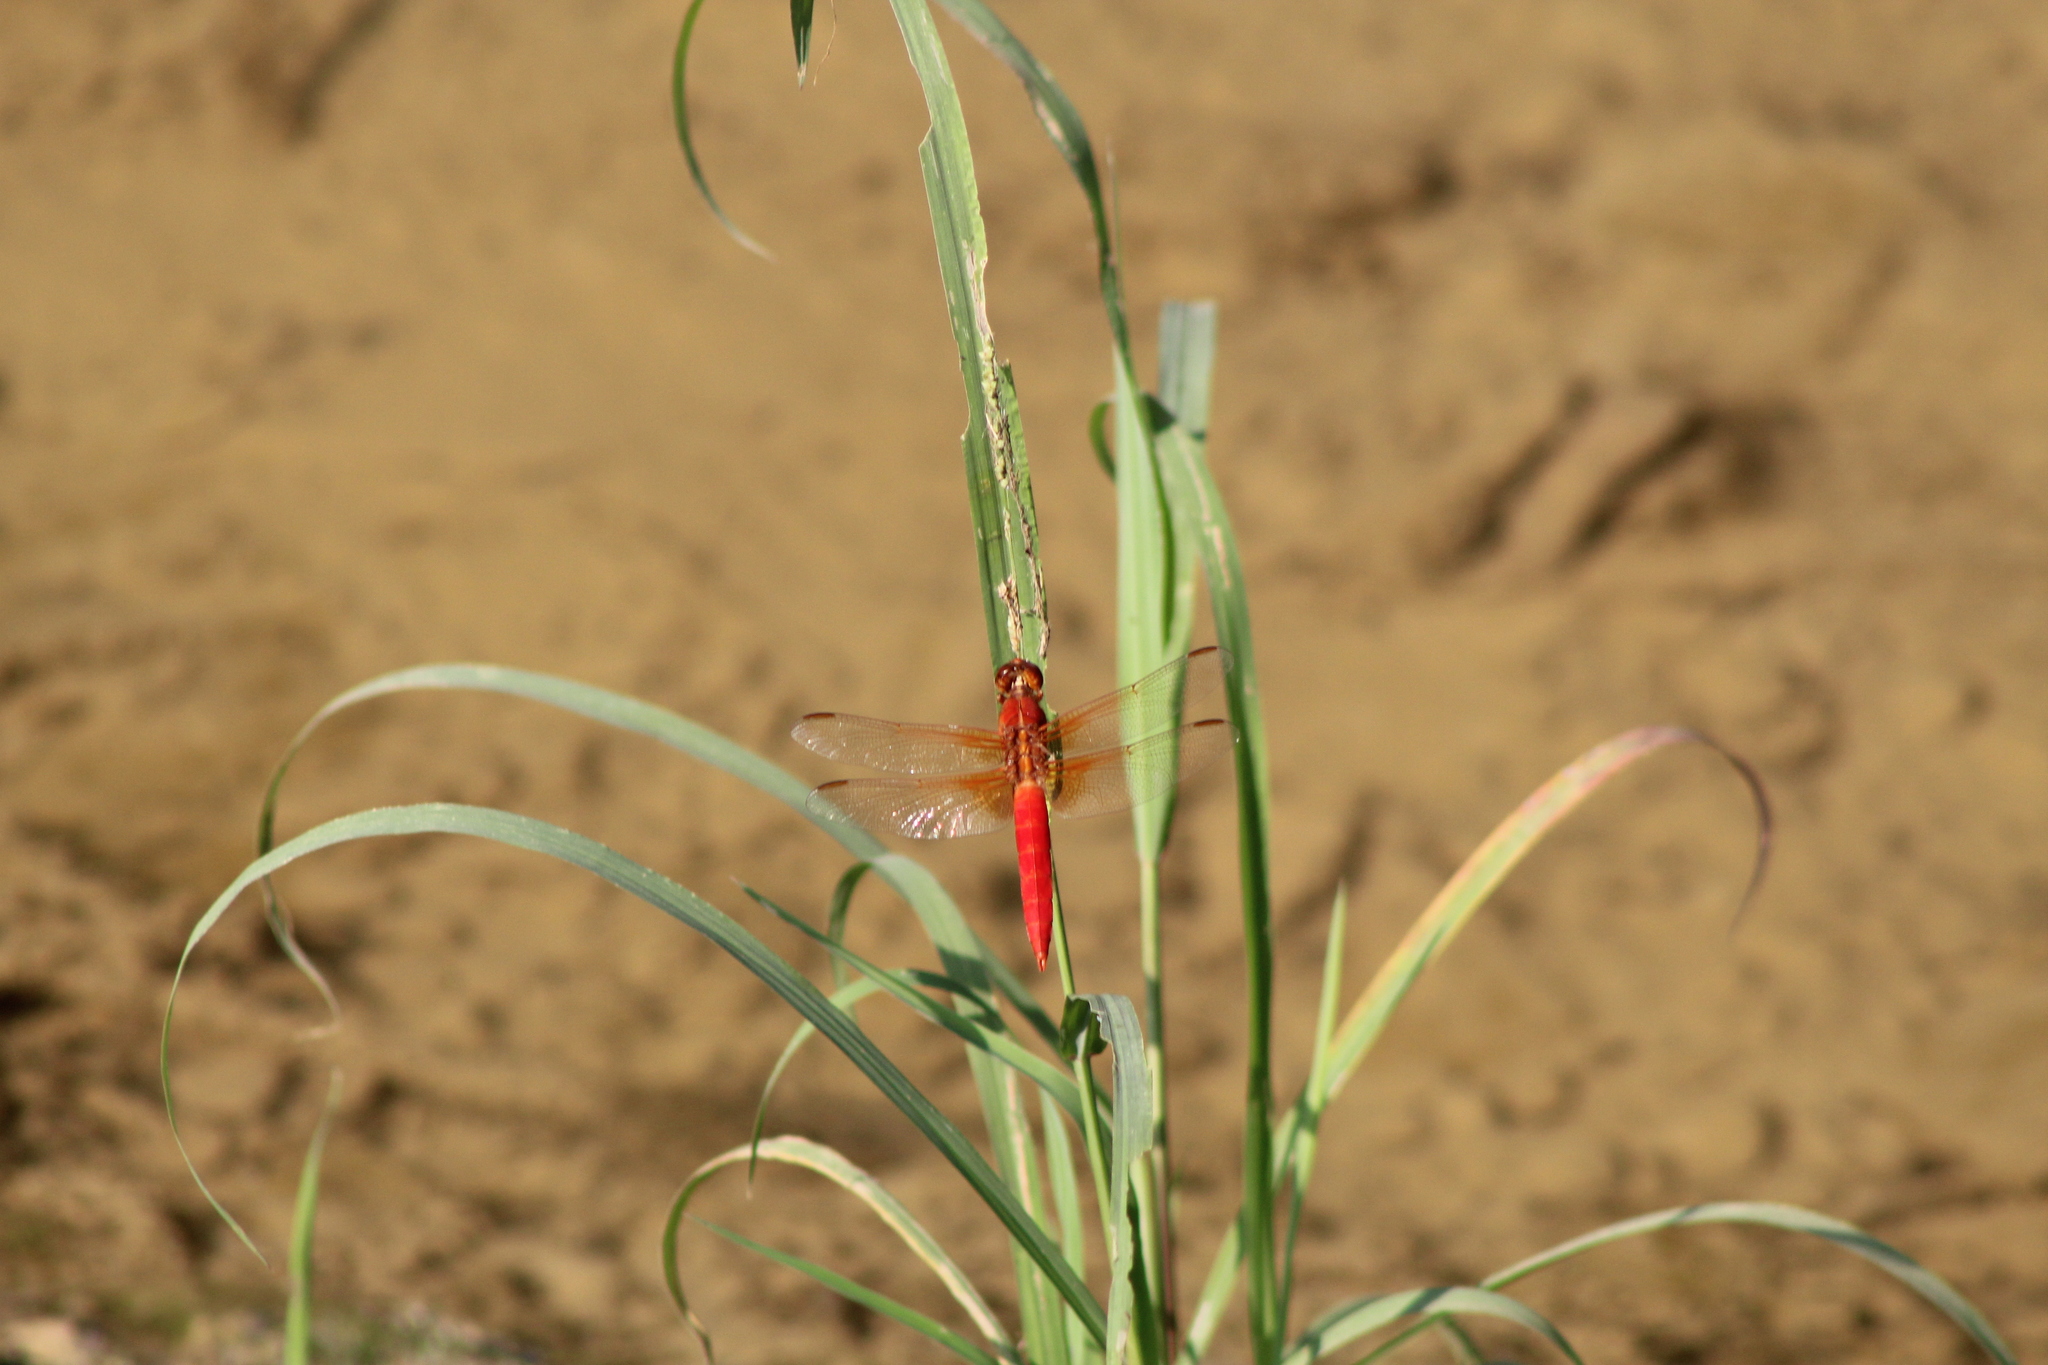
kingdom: Animalia
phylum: Arthropoda
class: Insecta
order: Odonata
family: Libellulidae
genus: Libellula
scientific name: Libellula croceipennis
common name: Neon skimmer
